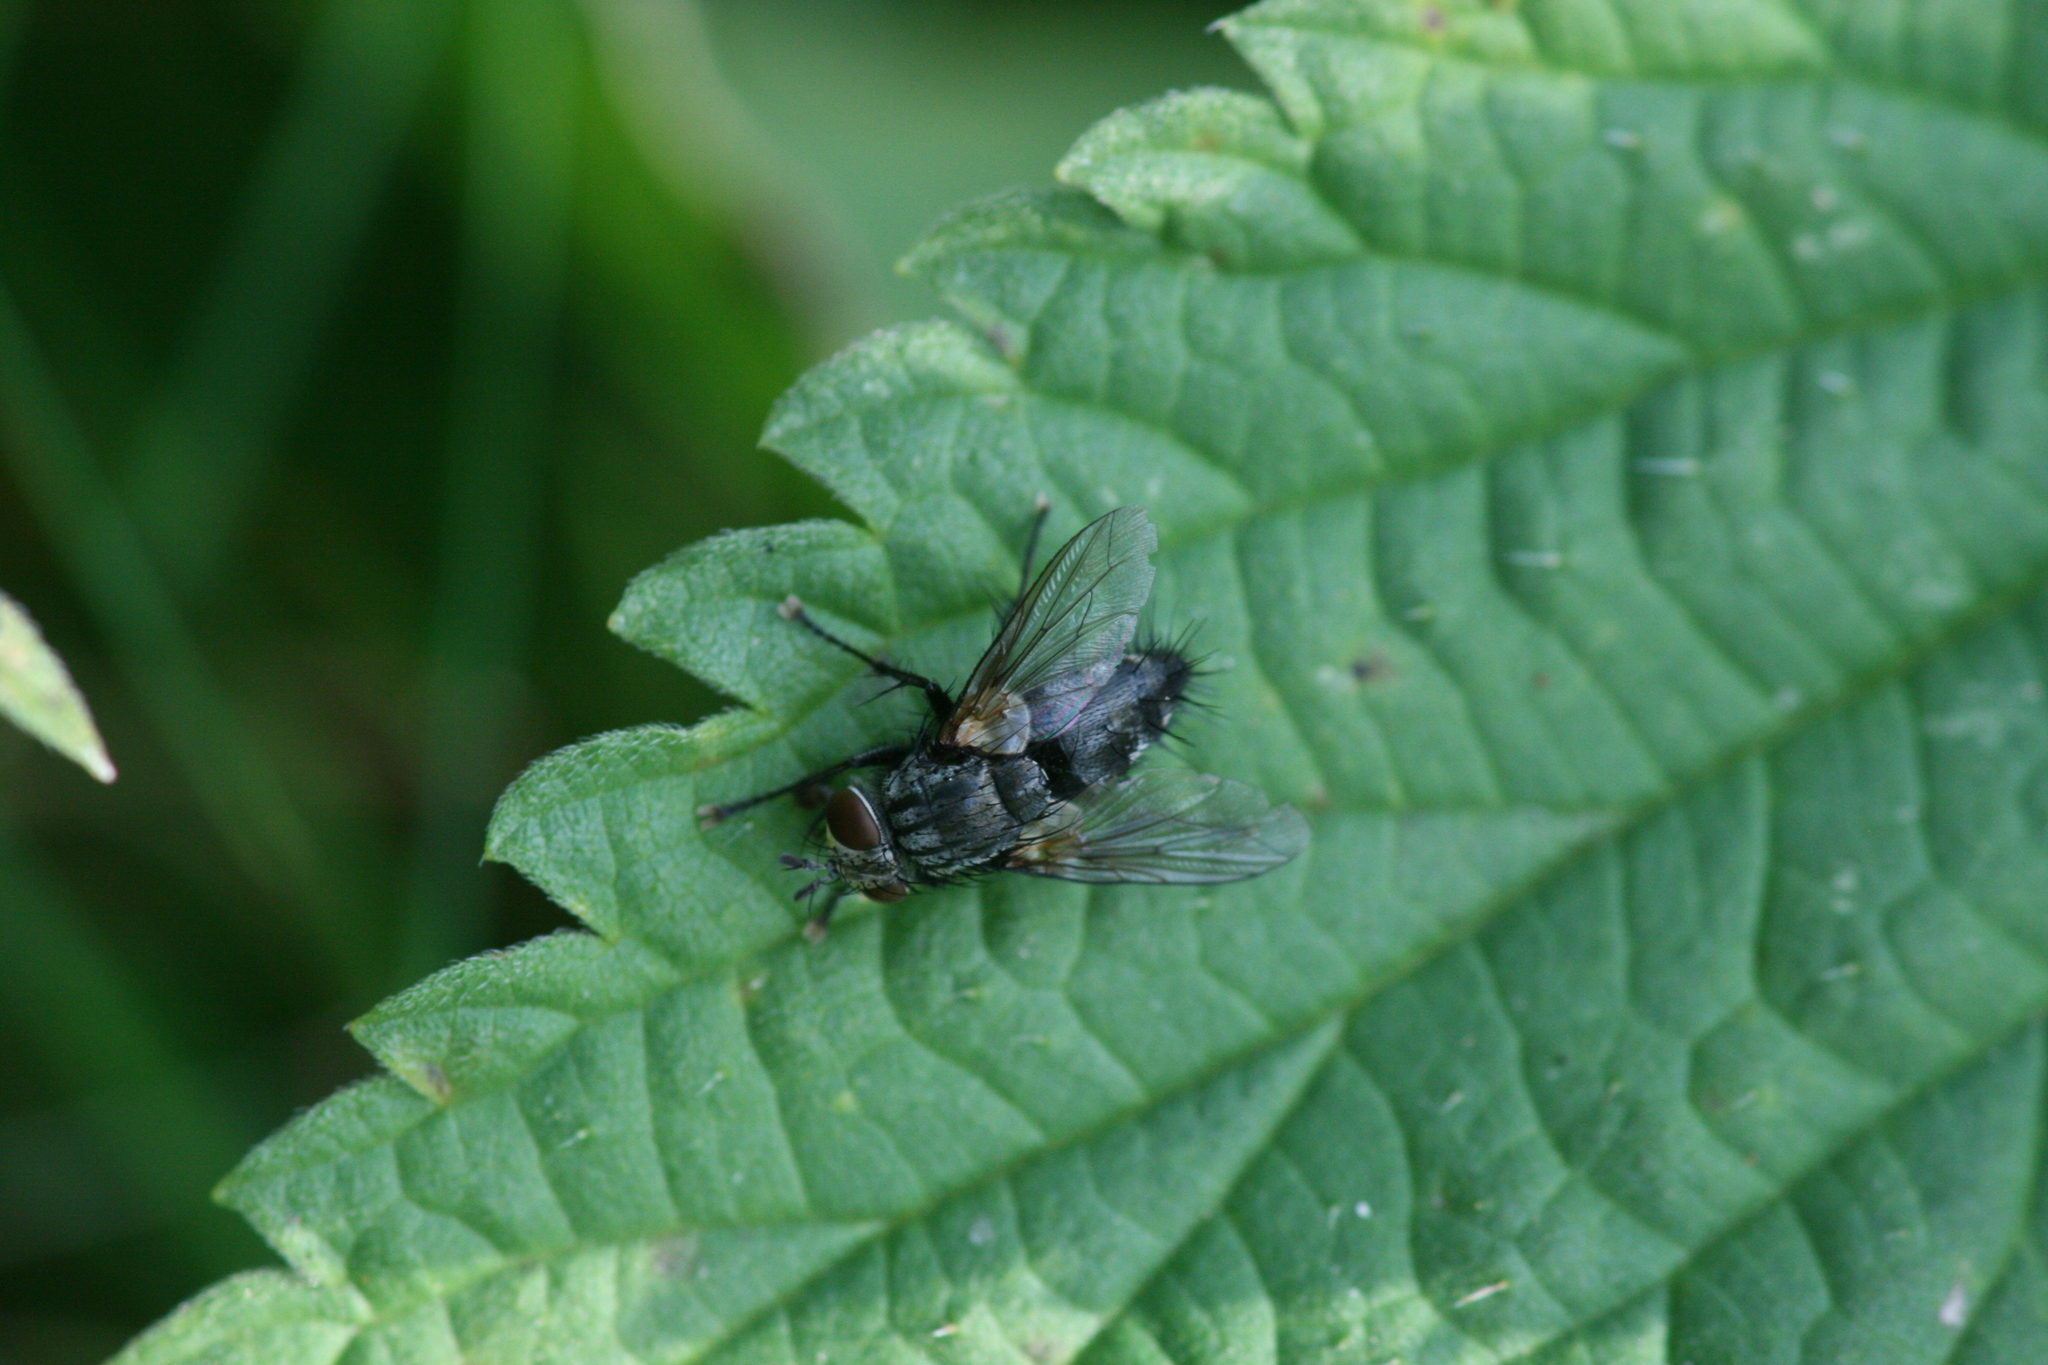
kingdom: Animalia
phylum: Arthropoda
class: Insecta
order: Diptera
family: Tachinidae
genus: Voria
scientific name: Voria ruralis
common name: Parasitic fly
